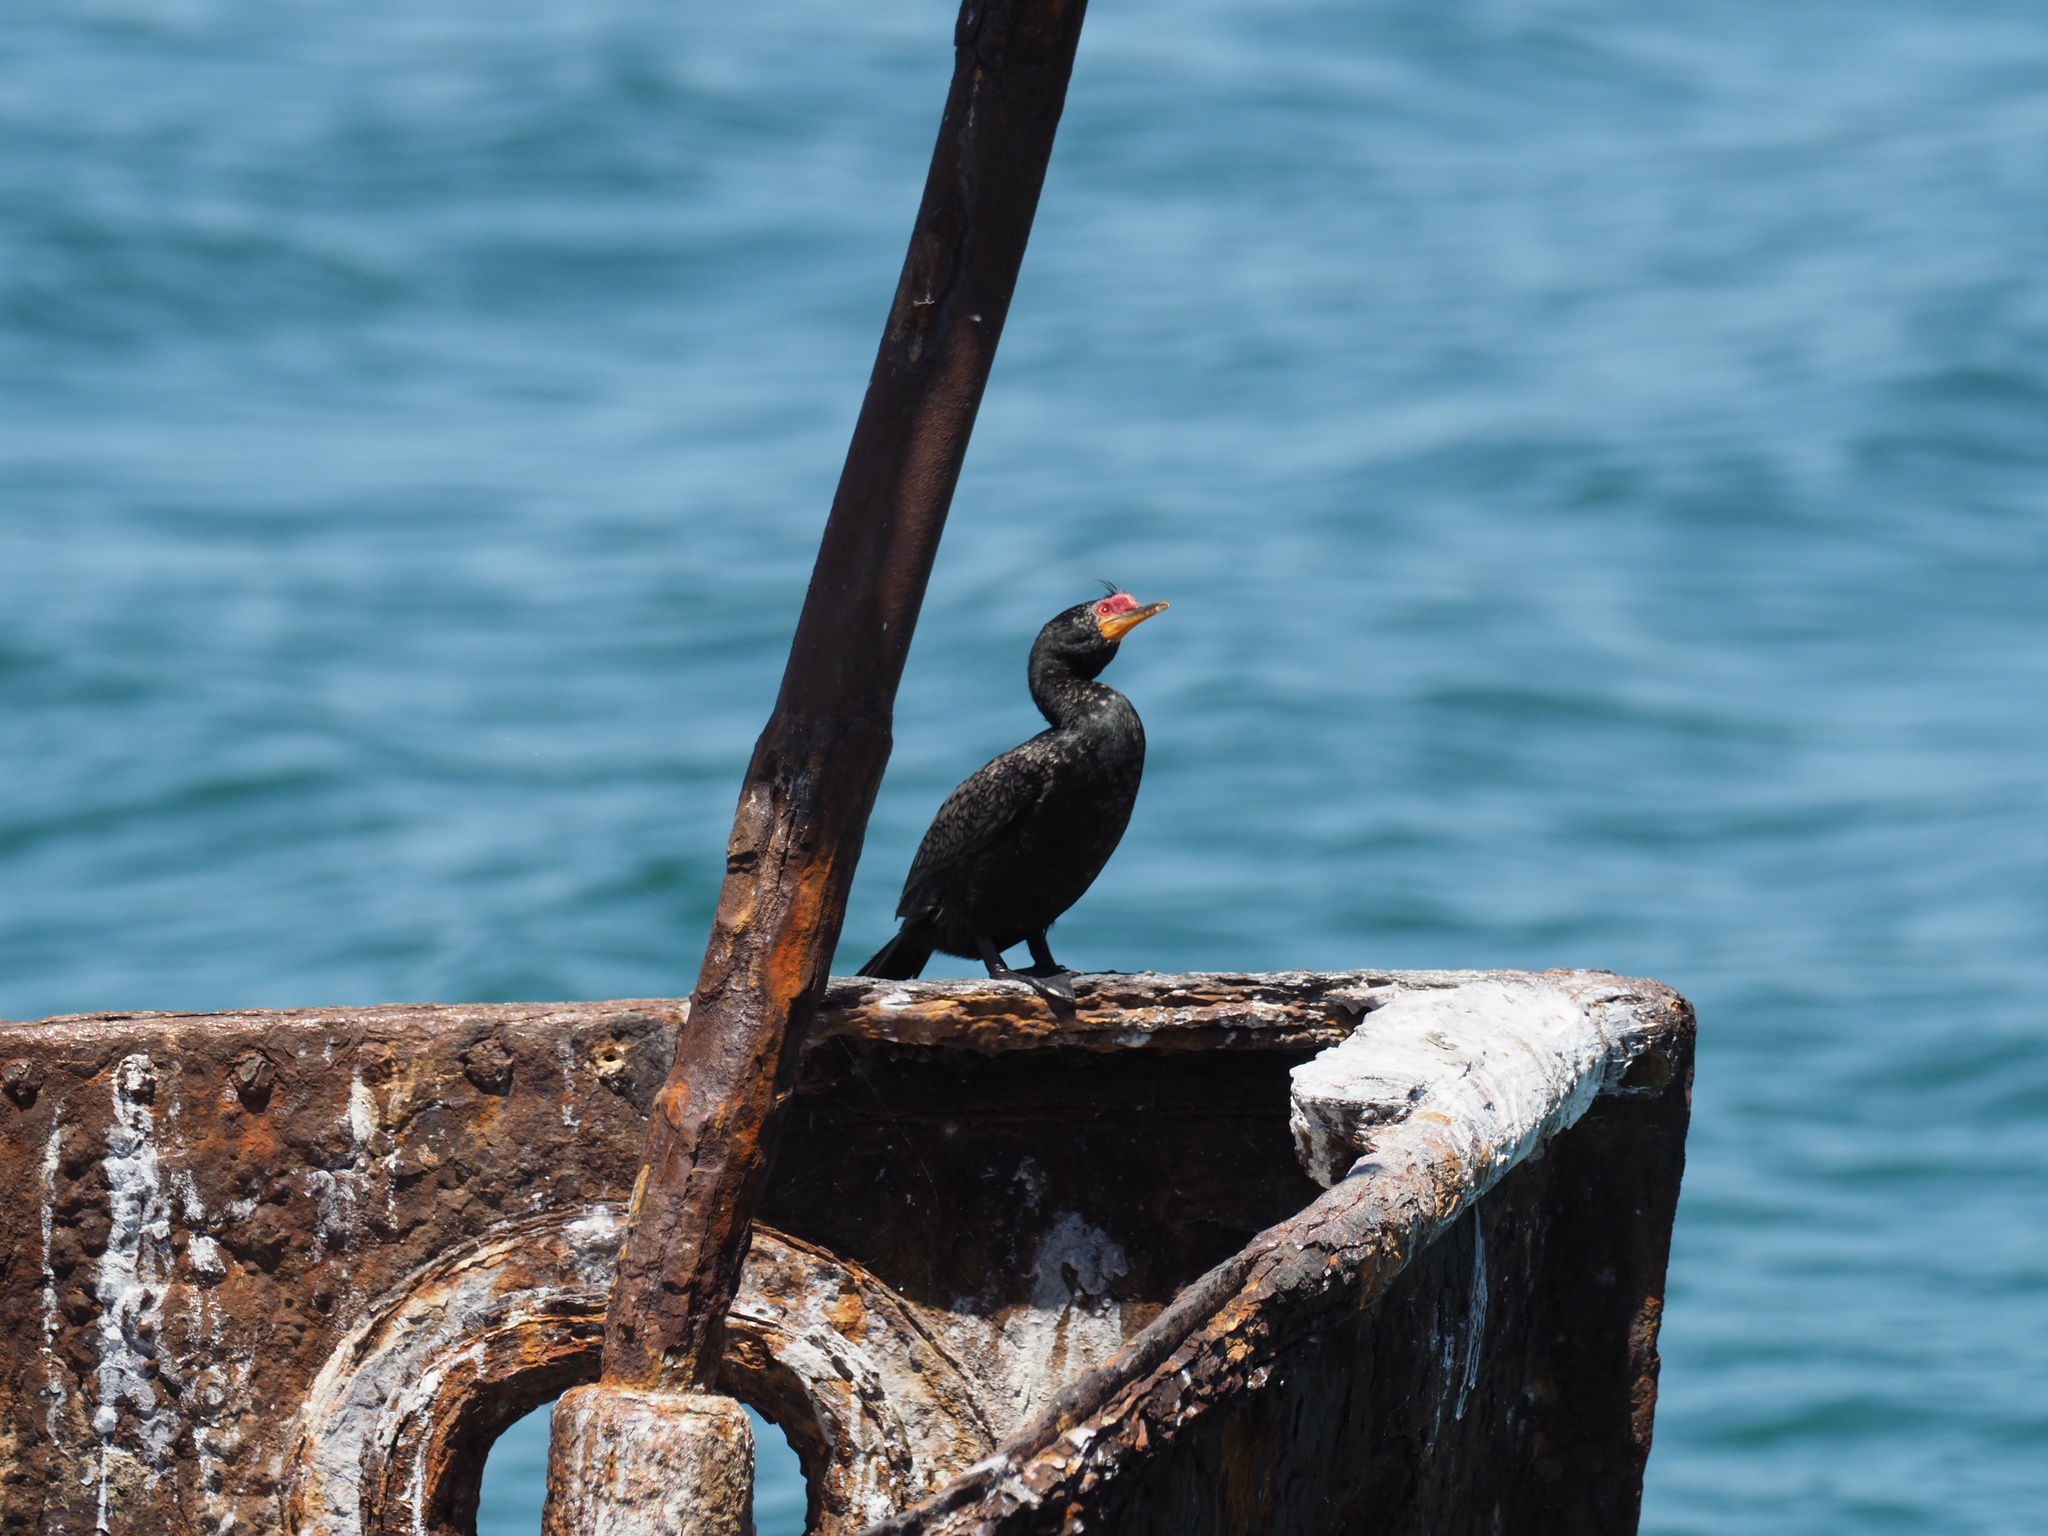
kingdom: Animalia
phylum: Chordata
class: Aves
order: Suliformes
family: Phalacrocoracidae
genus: Microcarbo
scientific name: Microcarbo coronatus
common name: Crowned cormorant
